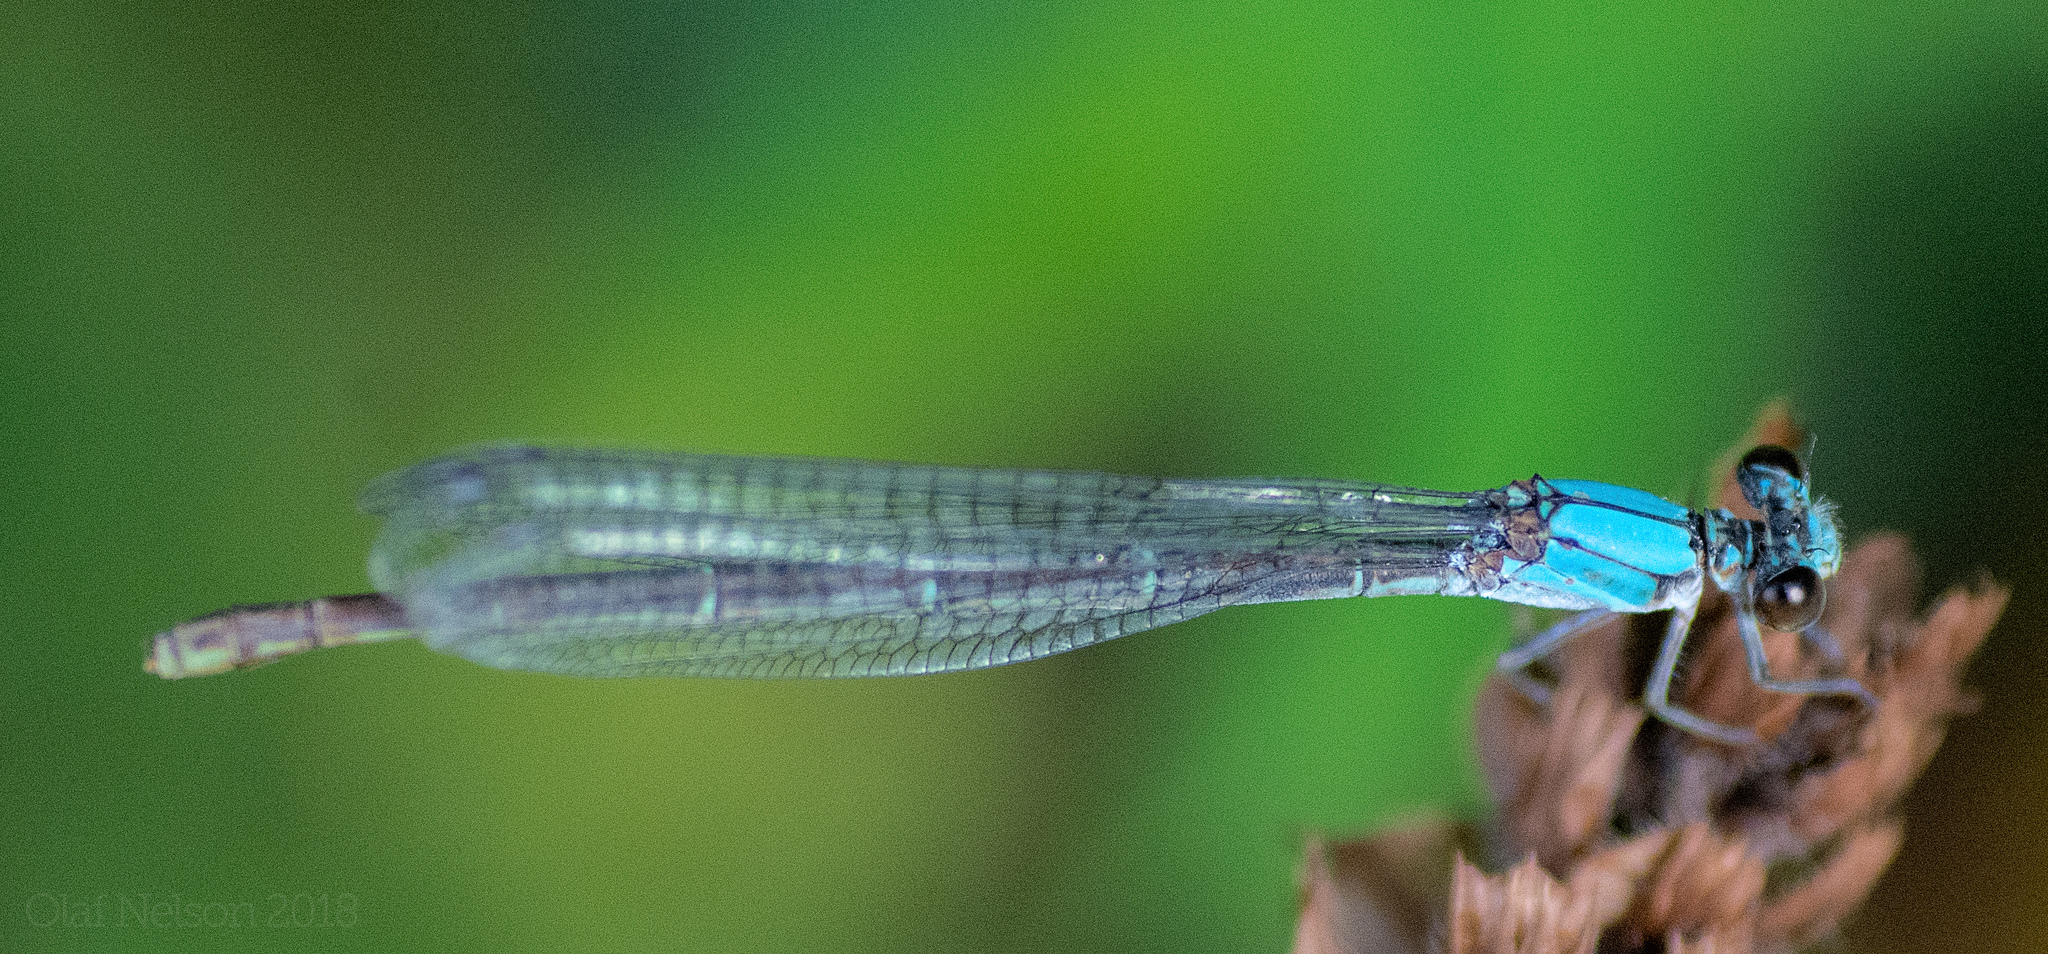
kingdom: Animalia
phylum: Arthropoda
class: Insecta
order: Odonata
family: Coenagrionidae
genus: Argia
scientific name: Argia moesta
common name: Powdered dancer
